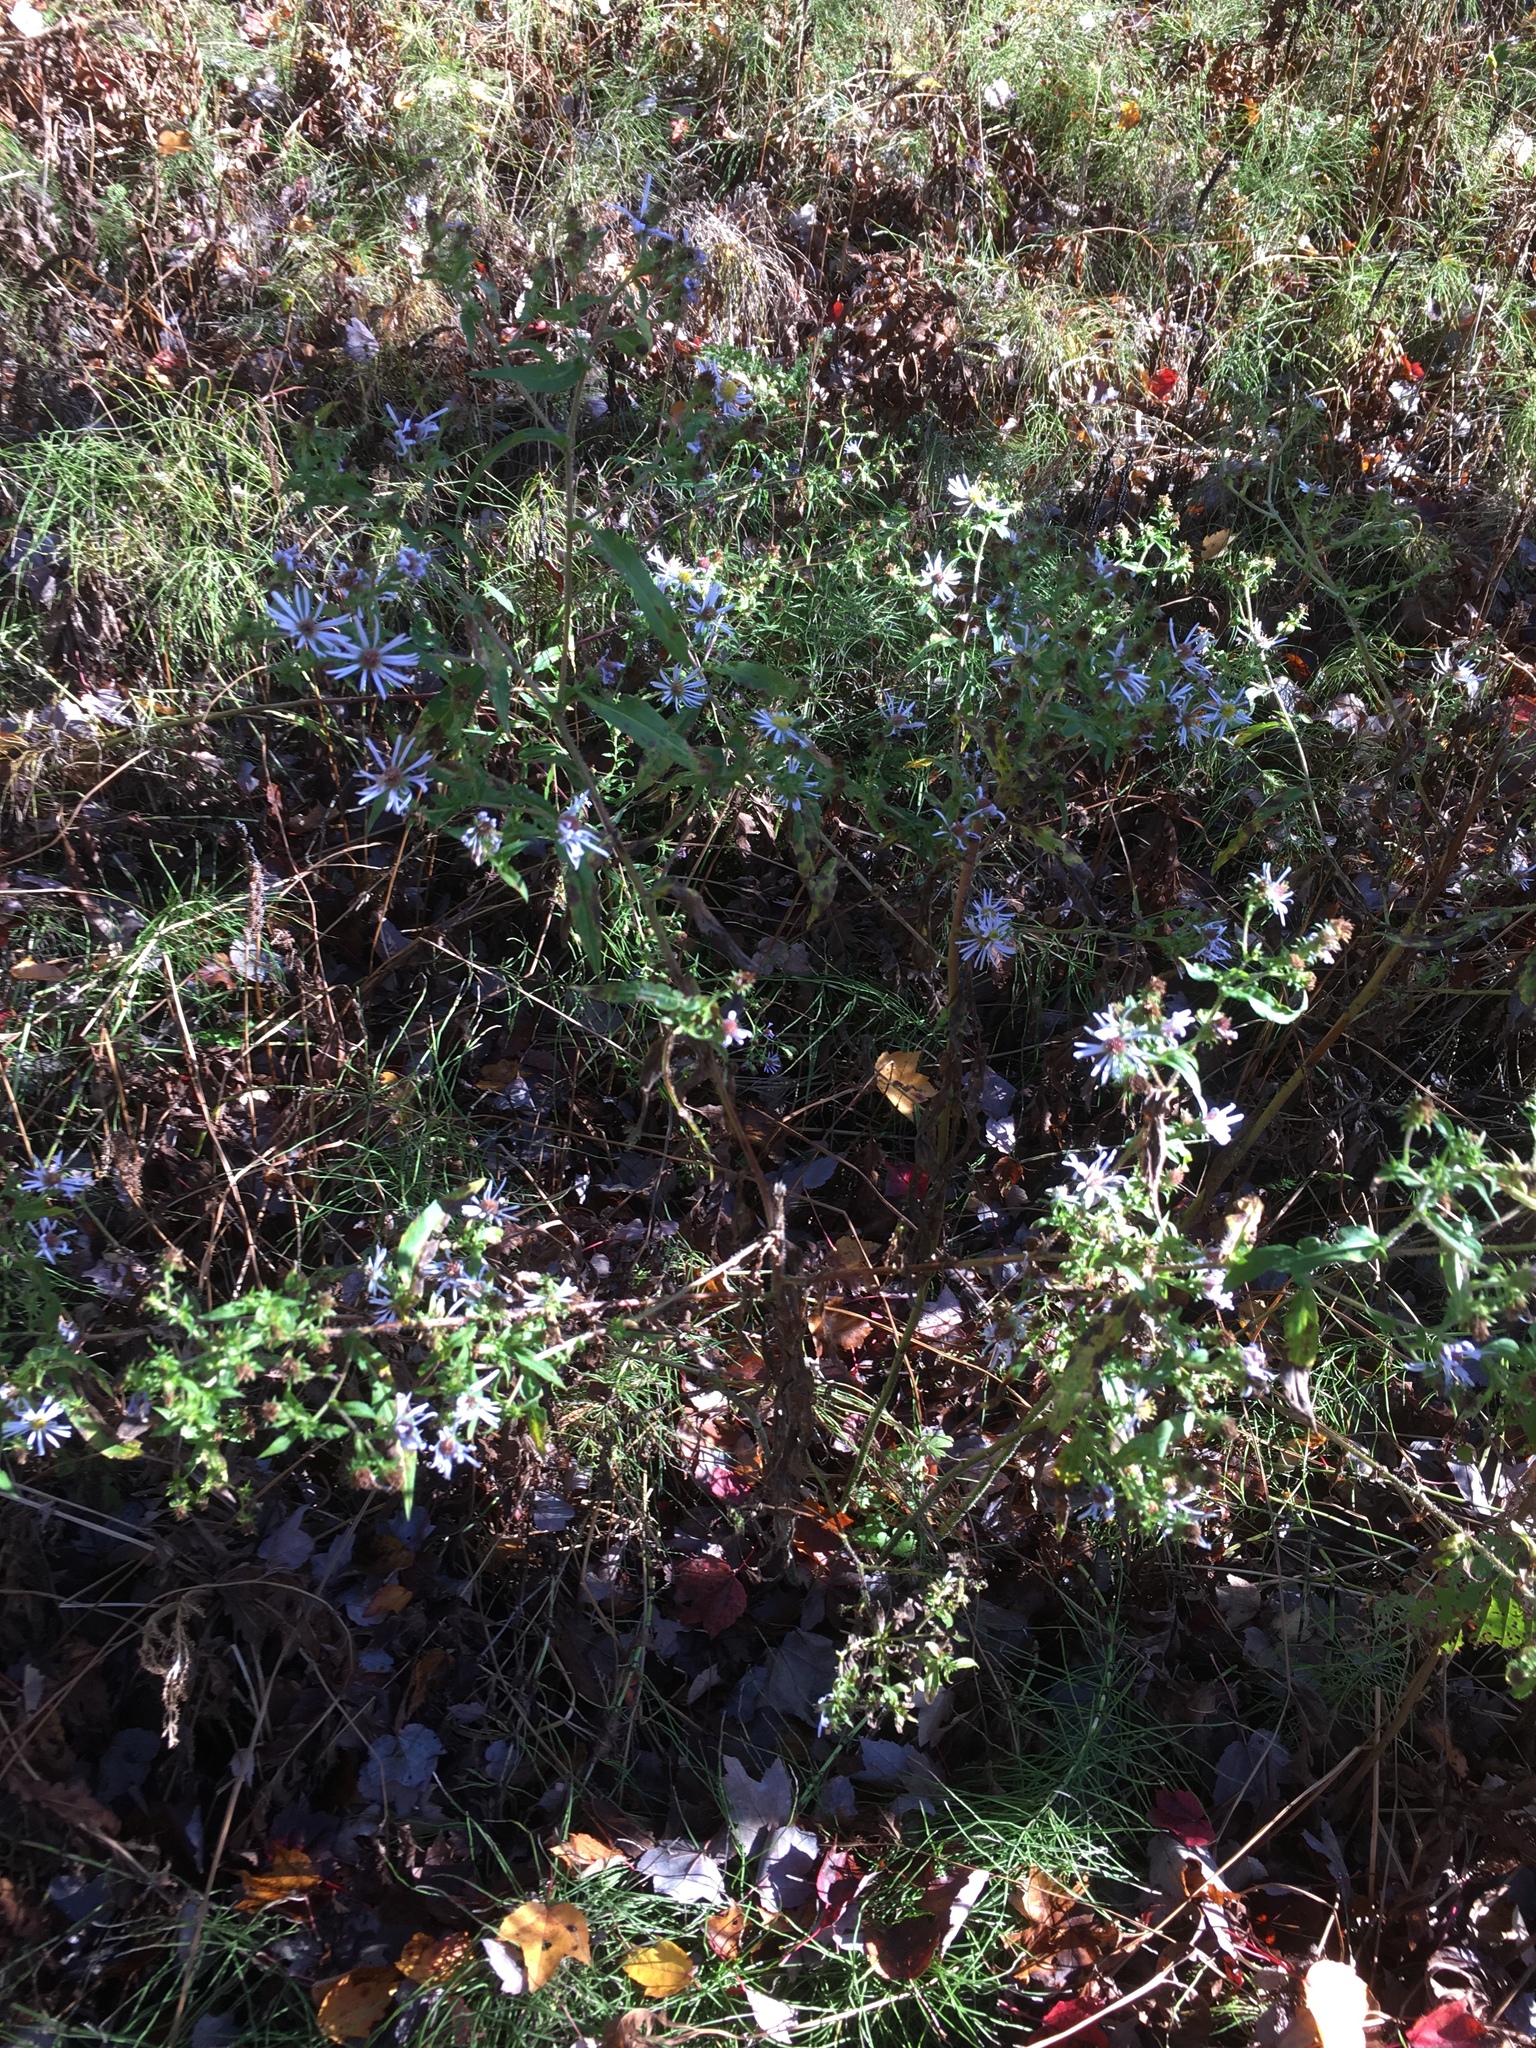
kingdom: Plantae
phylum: Tracheophyta
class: Magnoliopsida
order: Asterales
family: Asteraceae
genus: Symphyotrichum
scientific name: Symphyotrichum puniceum
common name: Bog aster
